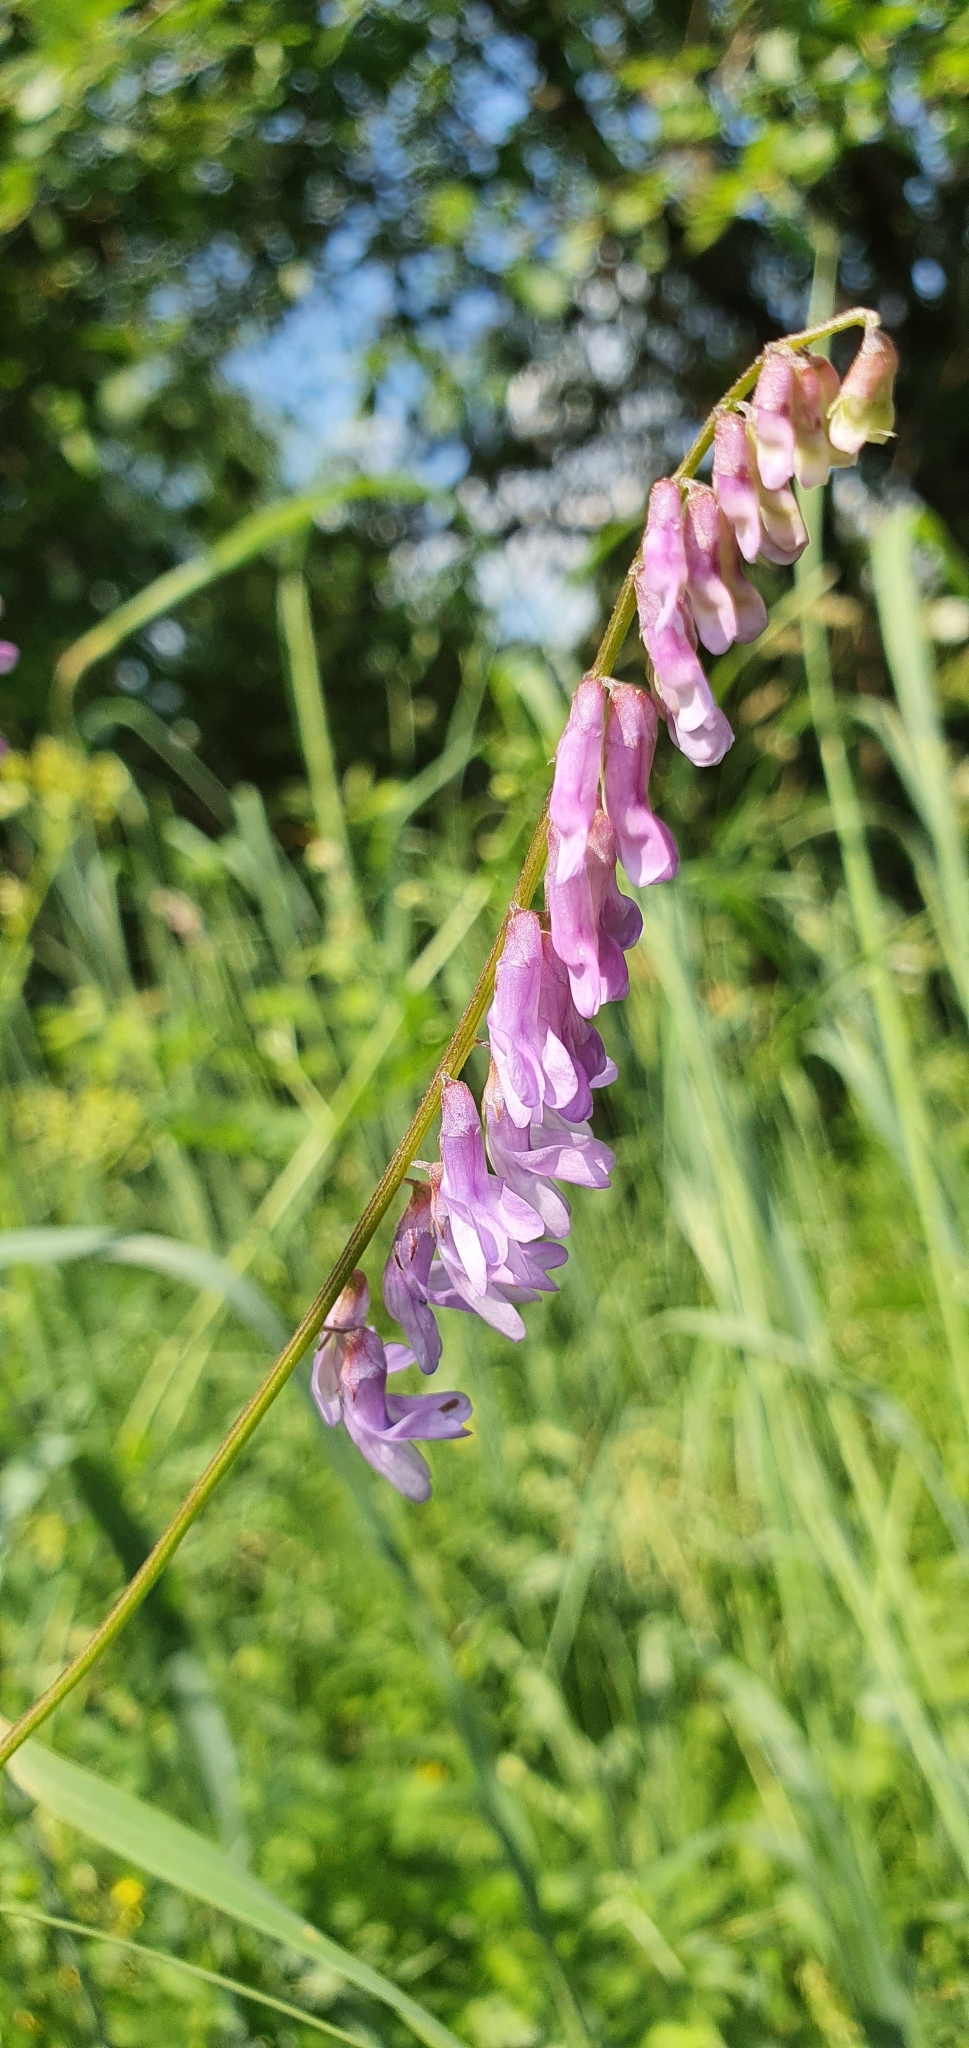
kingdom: Plantae
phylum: Tracheophyta
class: Magnoliopsida
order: Fabales
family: Fabaceae
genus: Vicia
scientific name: Vicia cracca
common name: Bird vetch
